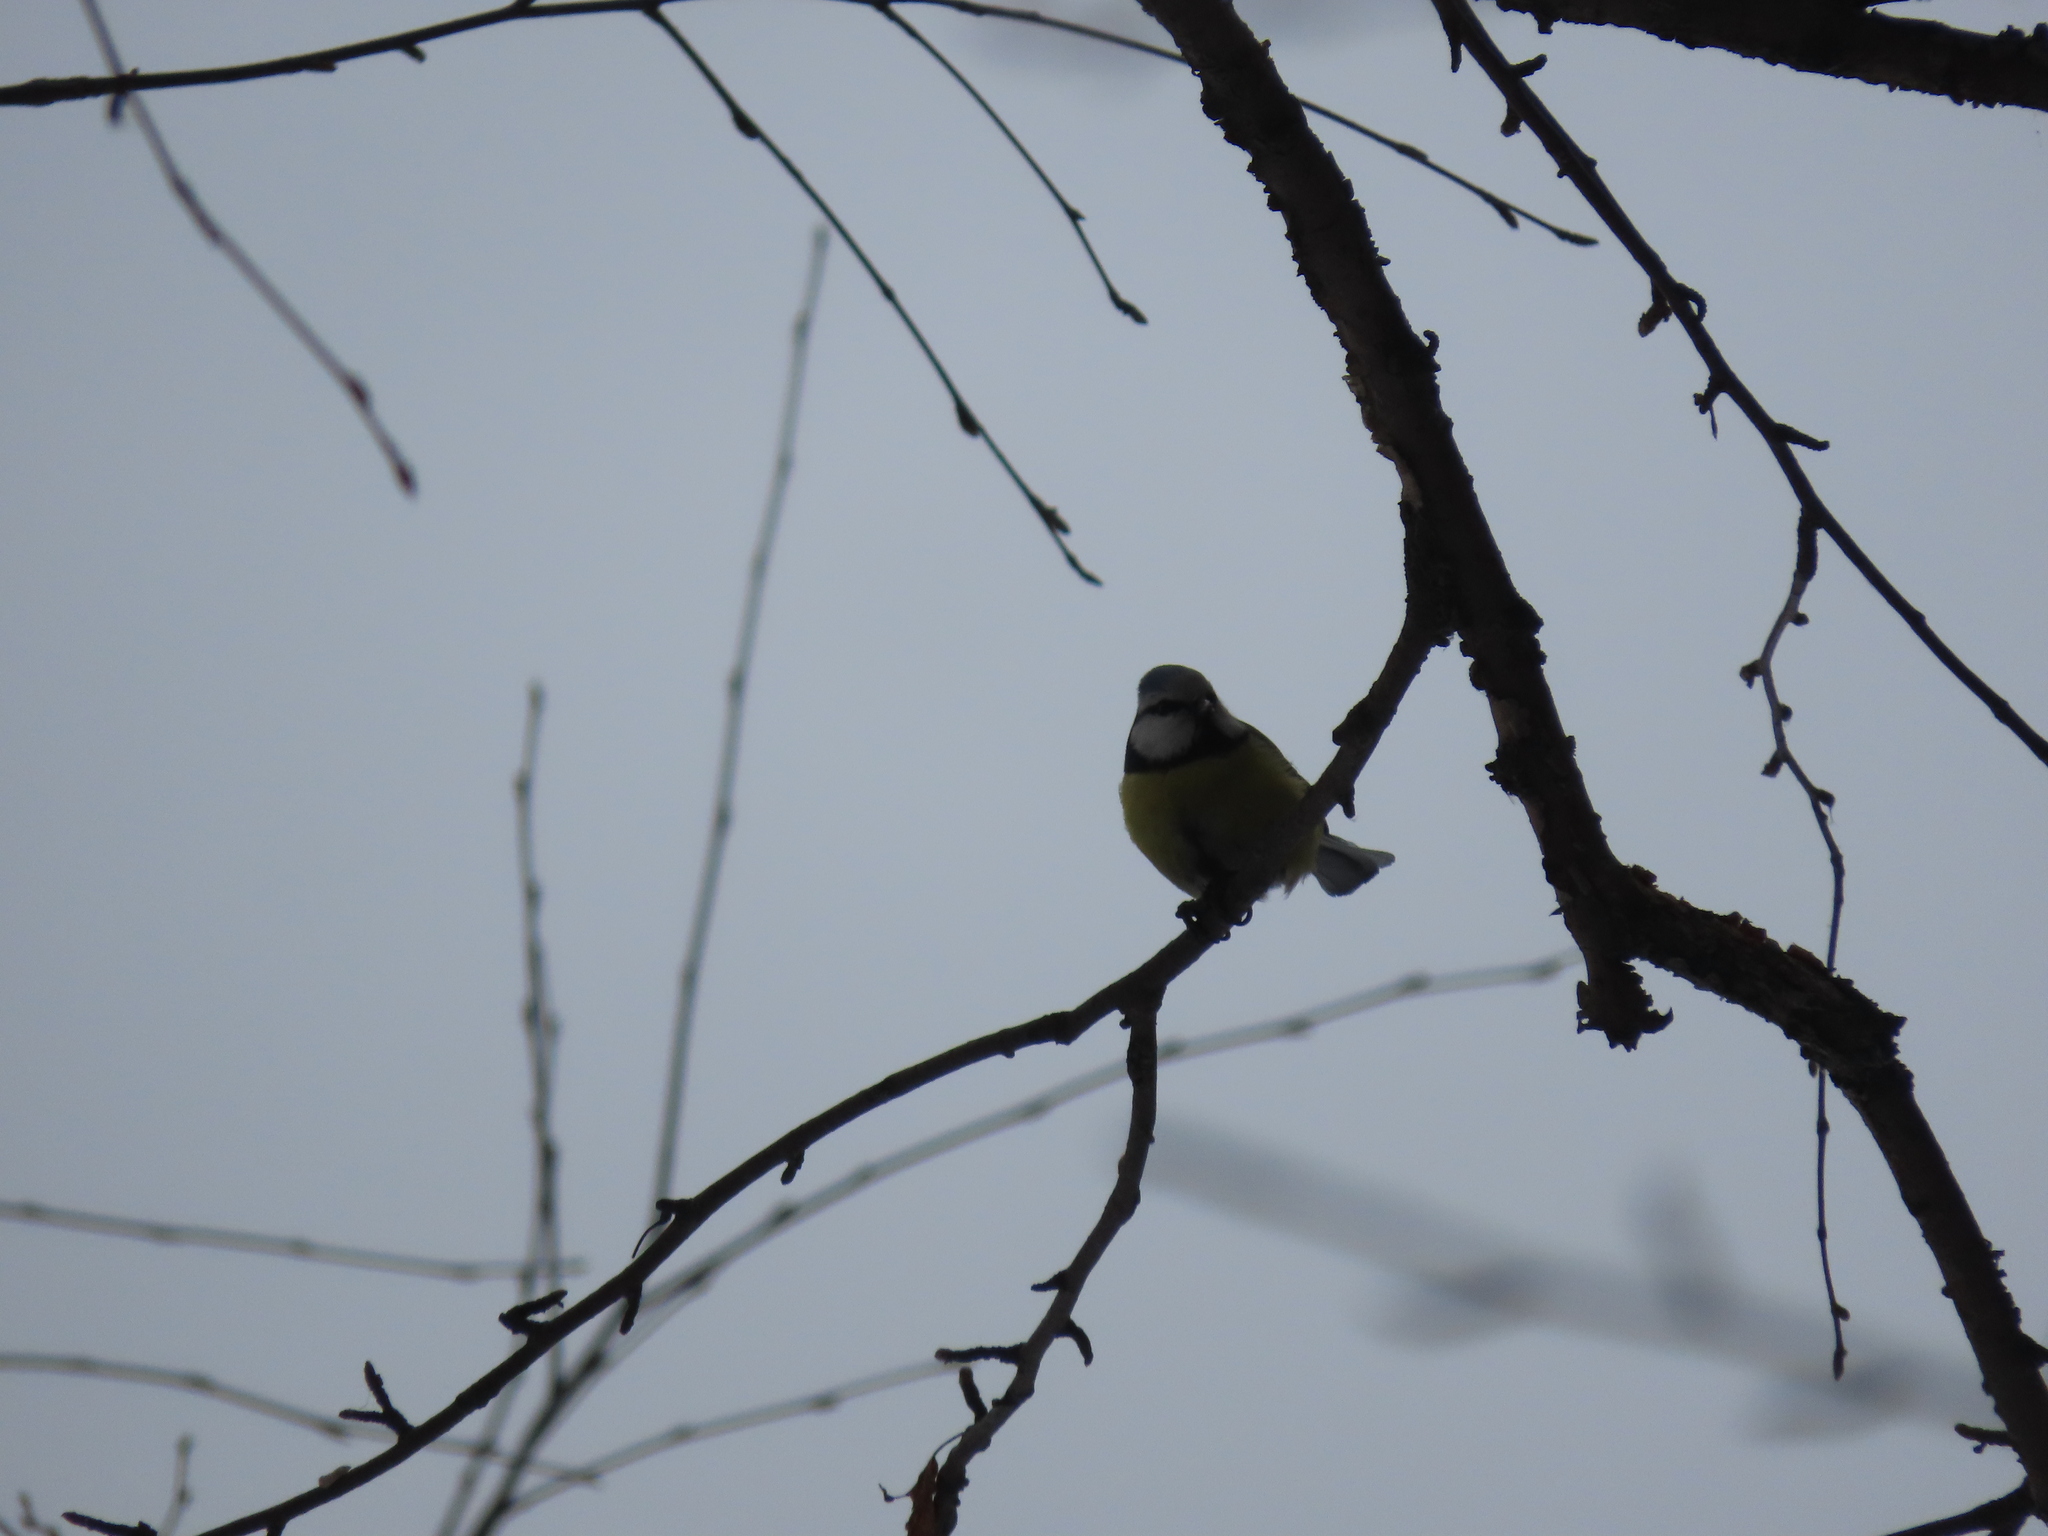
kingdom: Animalia
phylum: Chordata
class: Aves
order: Passeriformes
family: Paridae
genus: Cyanistes
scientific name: Cyanistes caeruleus
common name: Eurasian blue tit
